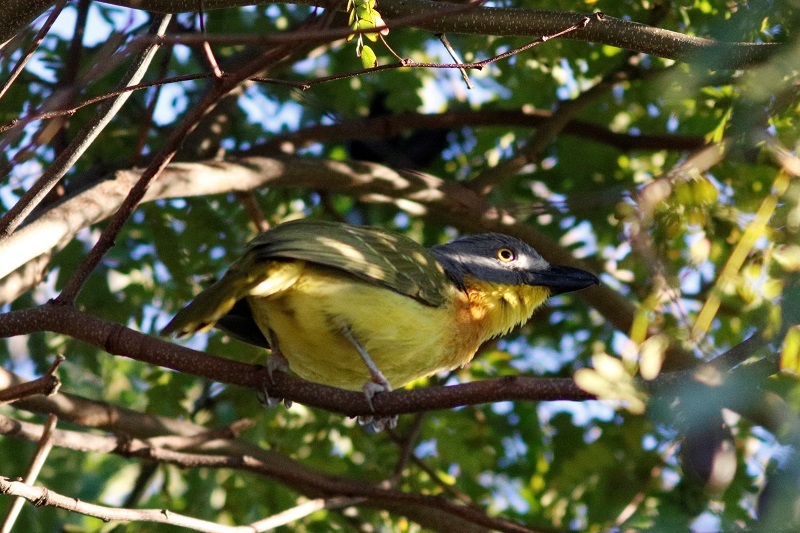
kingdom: Animalia
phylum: Chordata
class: Aves
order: Passeriformes
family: Malaconotidae
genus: Malaconotus
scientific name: Malaconotus blanchoti
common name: Grey-headed bushshrike
